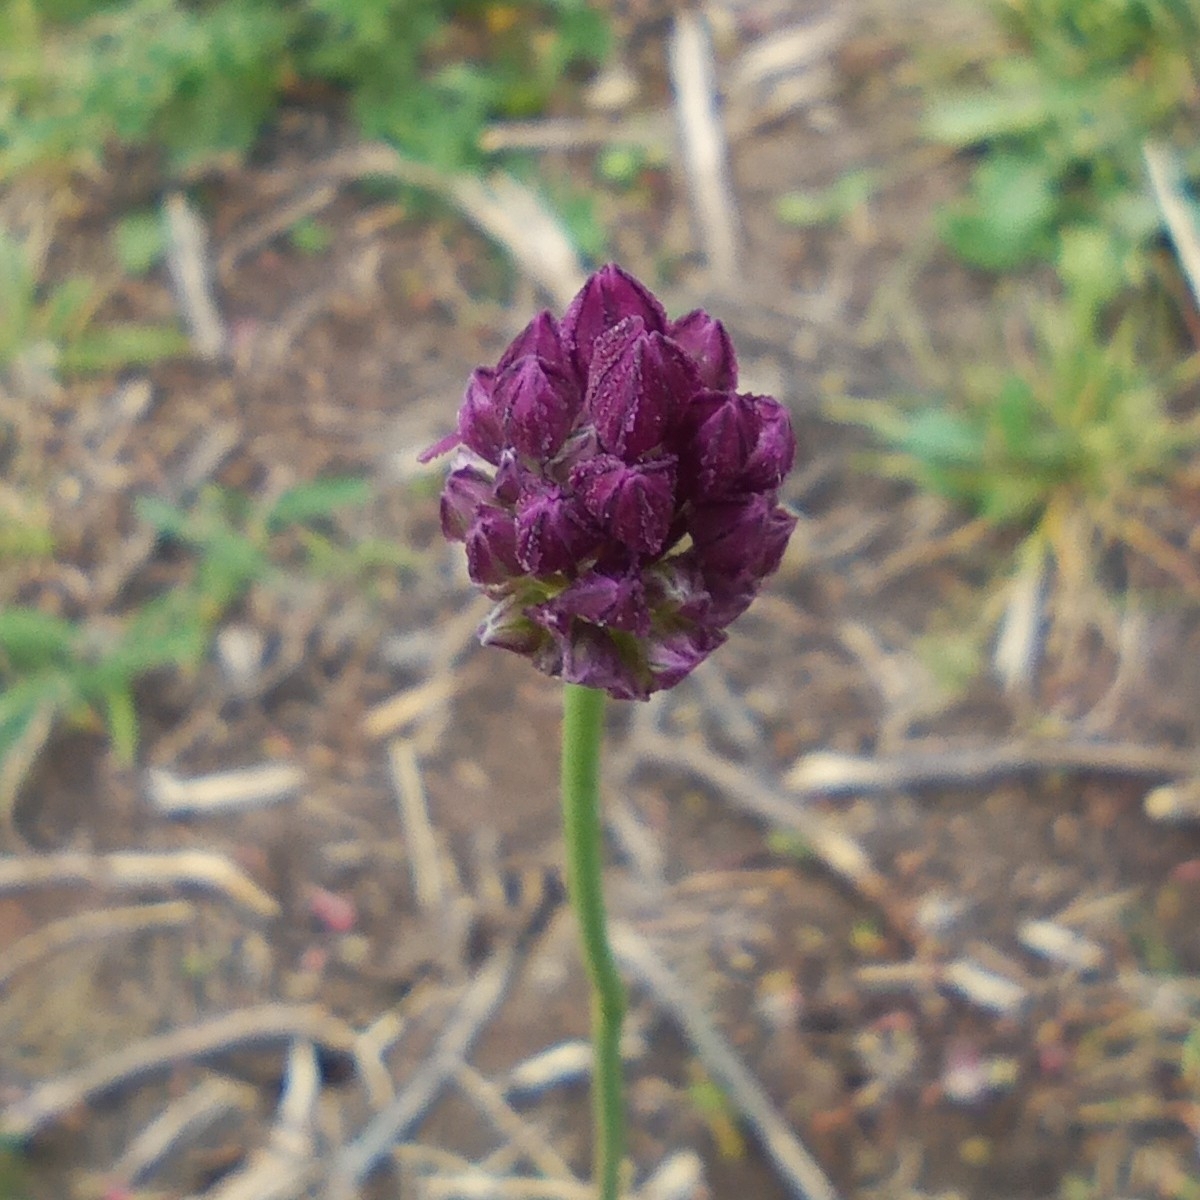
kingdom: Plantae
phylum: Tracheophyta
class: Liliopsida
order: Asparagales
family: Amaryllidaceae
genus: Allium
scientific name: Allium rotundum
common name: Sand leek
